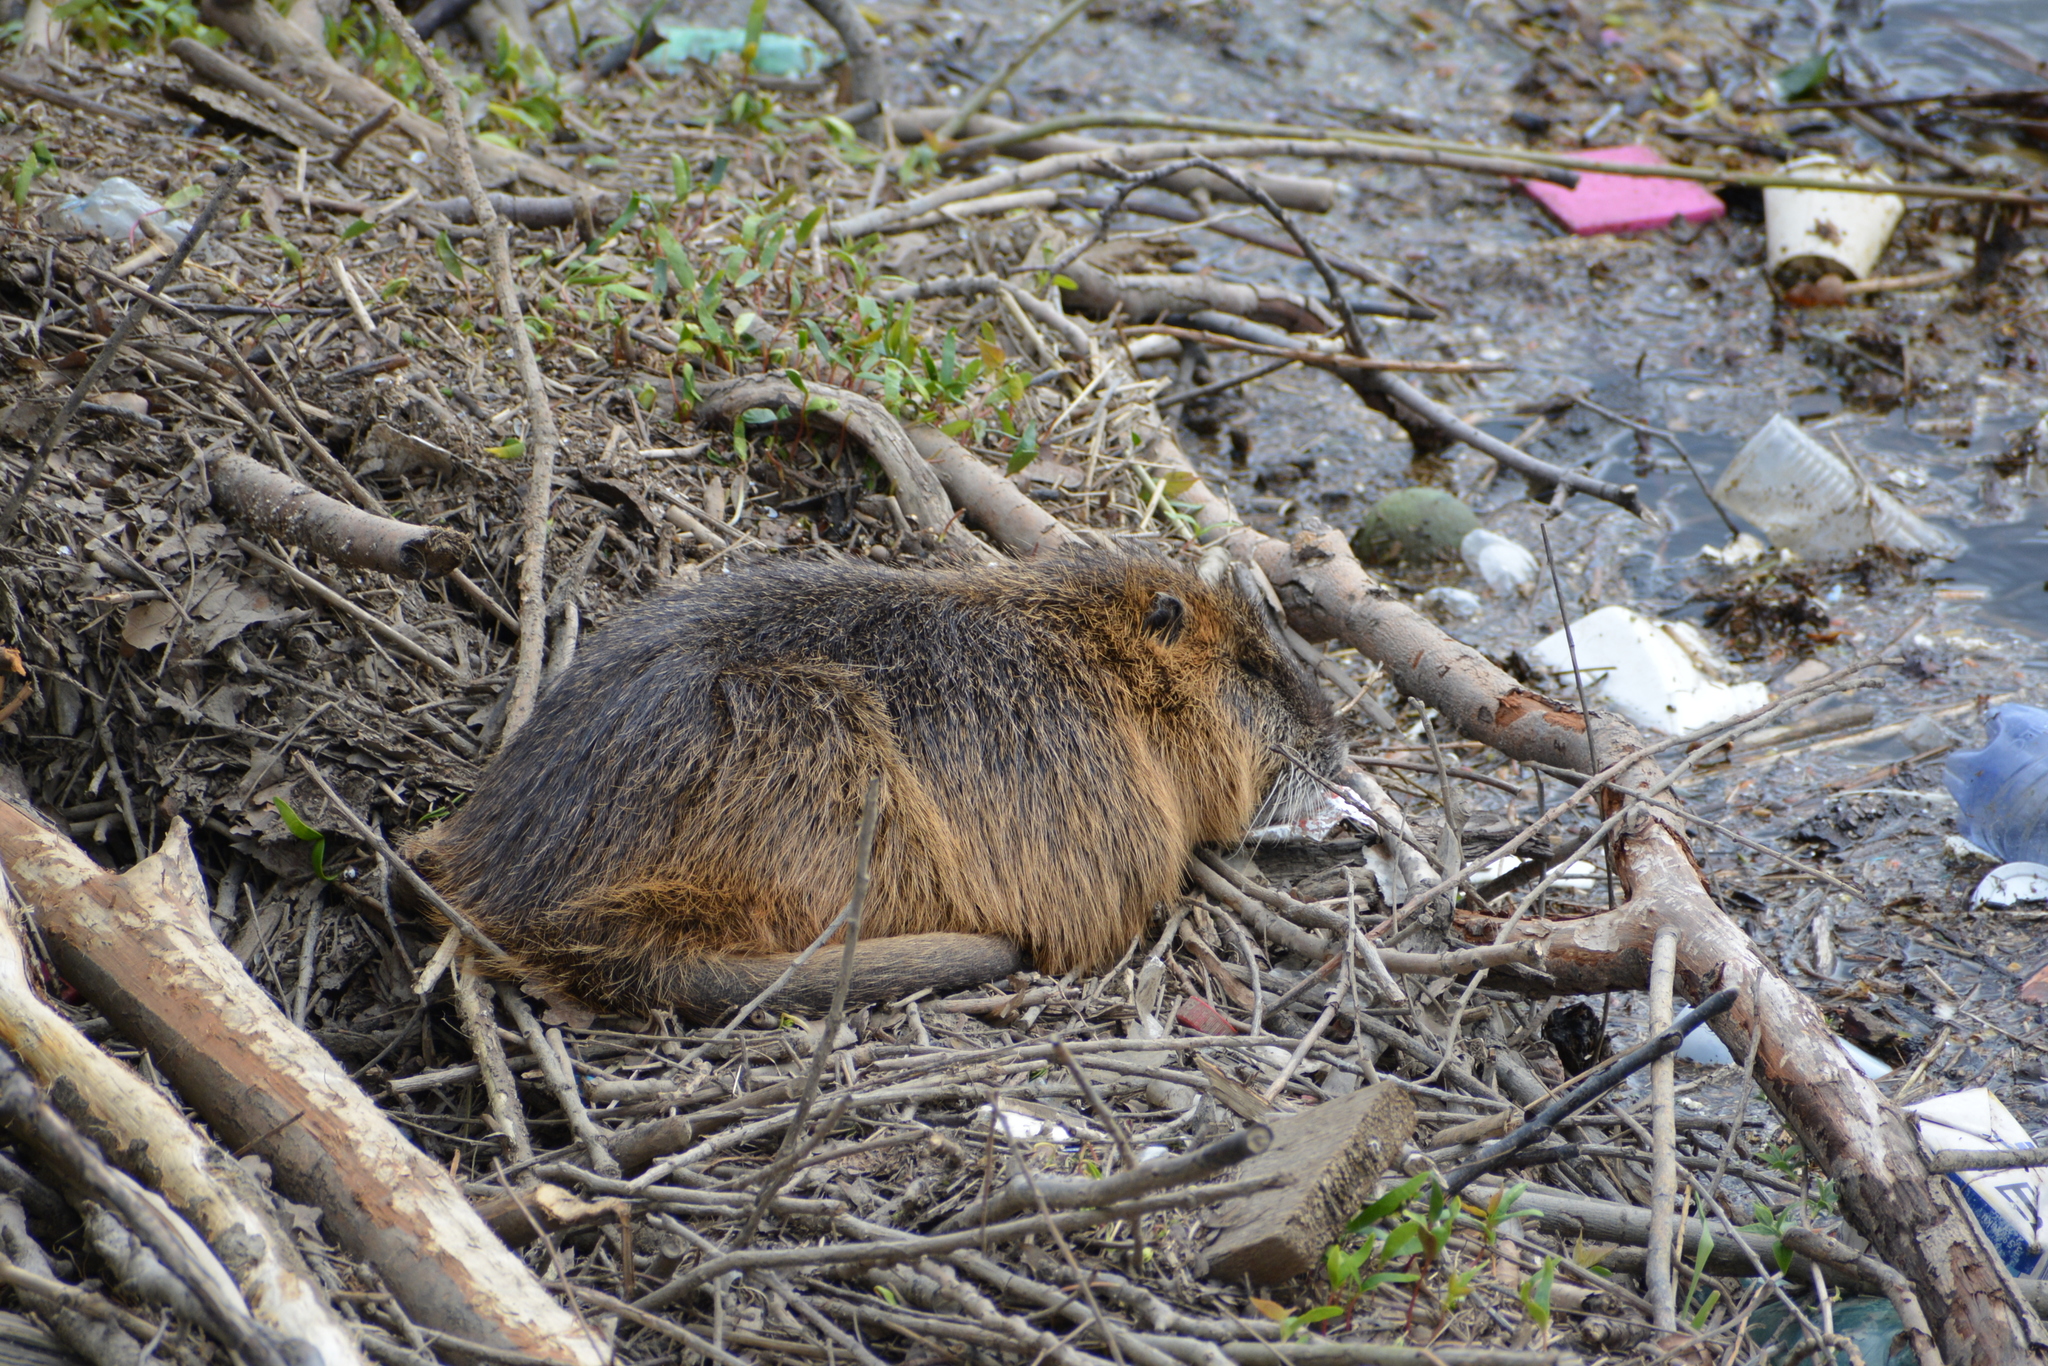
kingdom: Animalia
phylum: Chordata
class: Mammalia
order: Rodentia
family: Myocastoridae
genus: Myocastor
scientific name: Myocastor coypus
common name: Coypu
